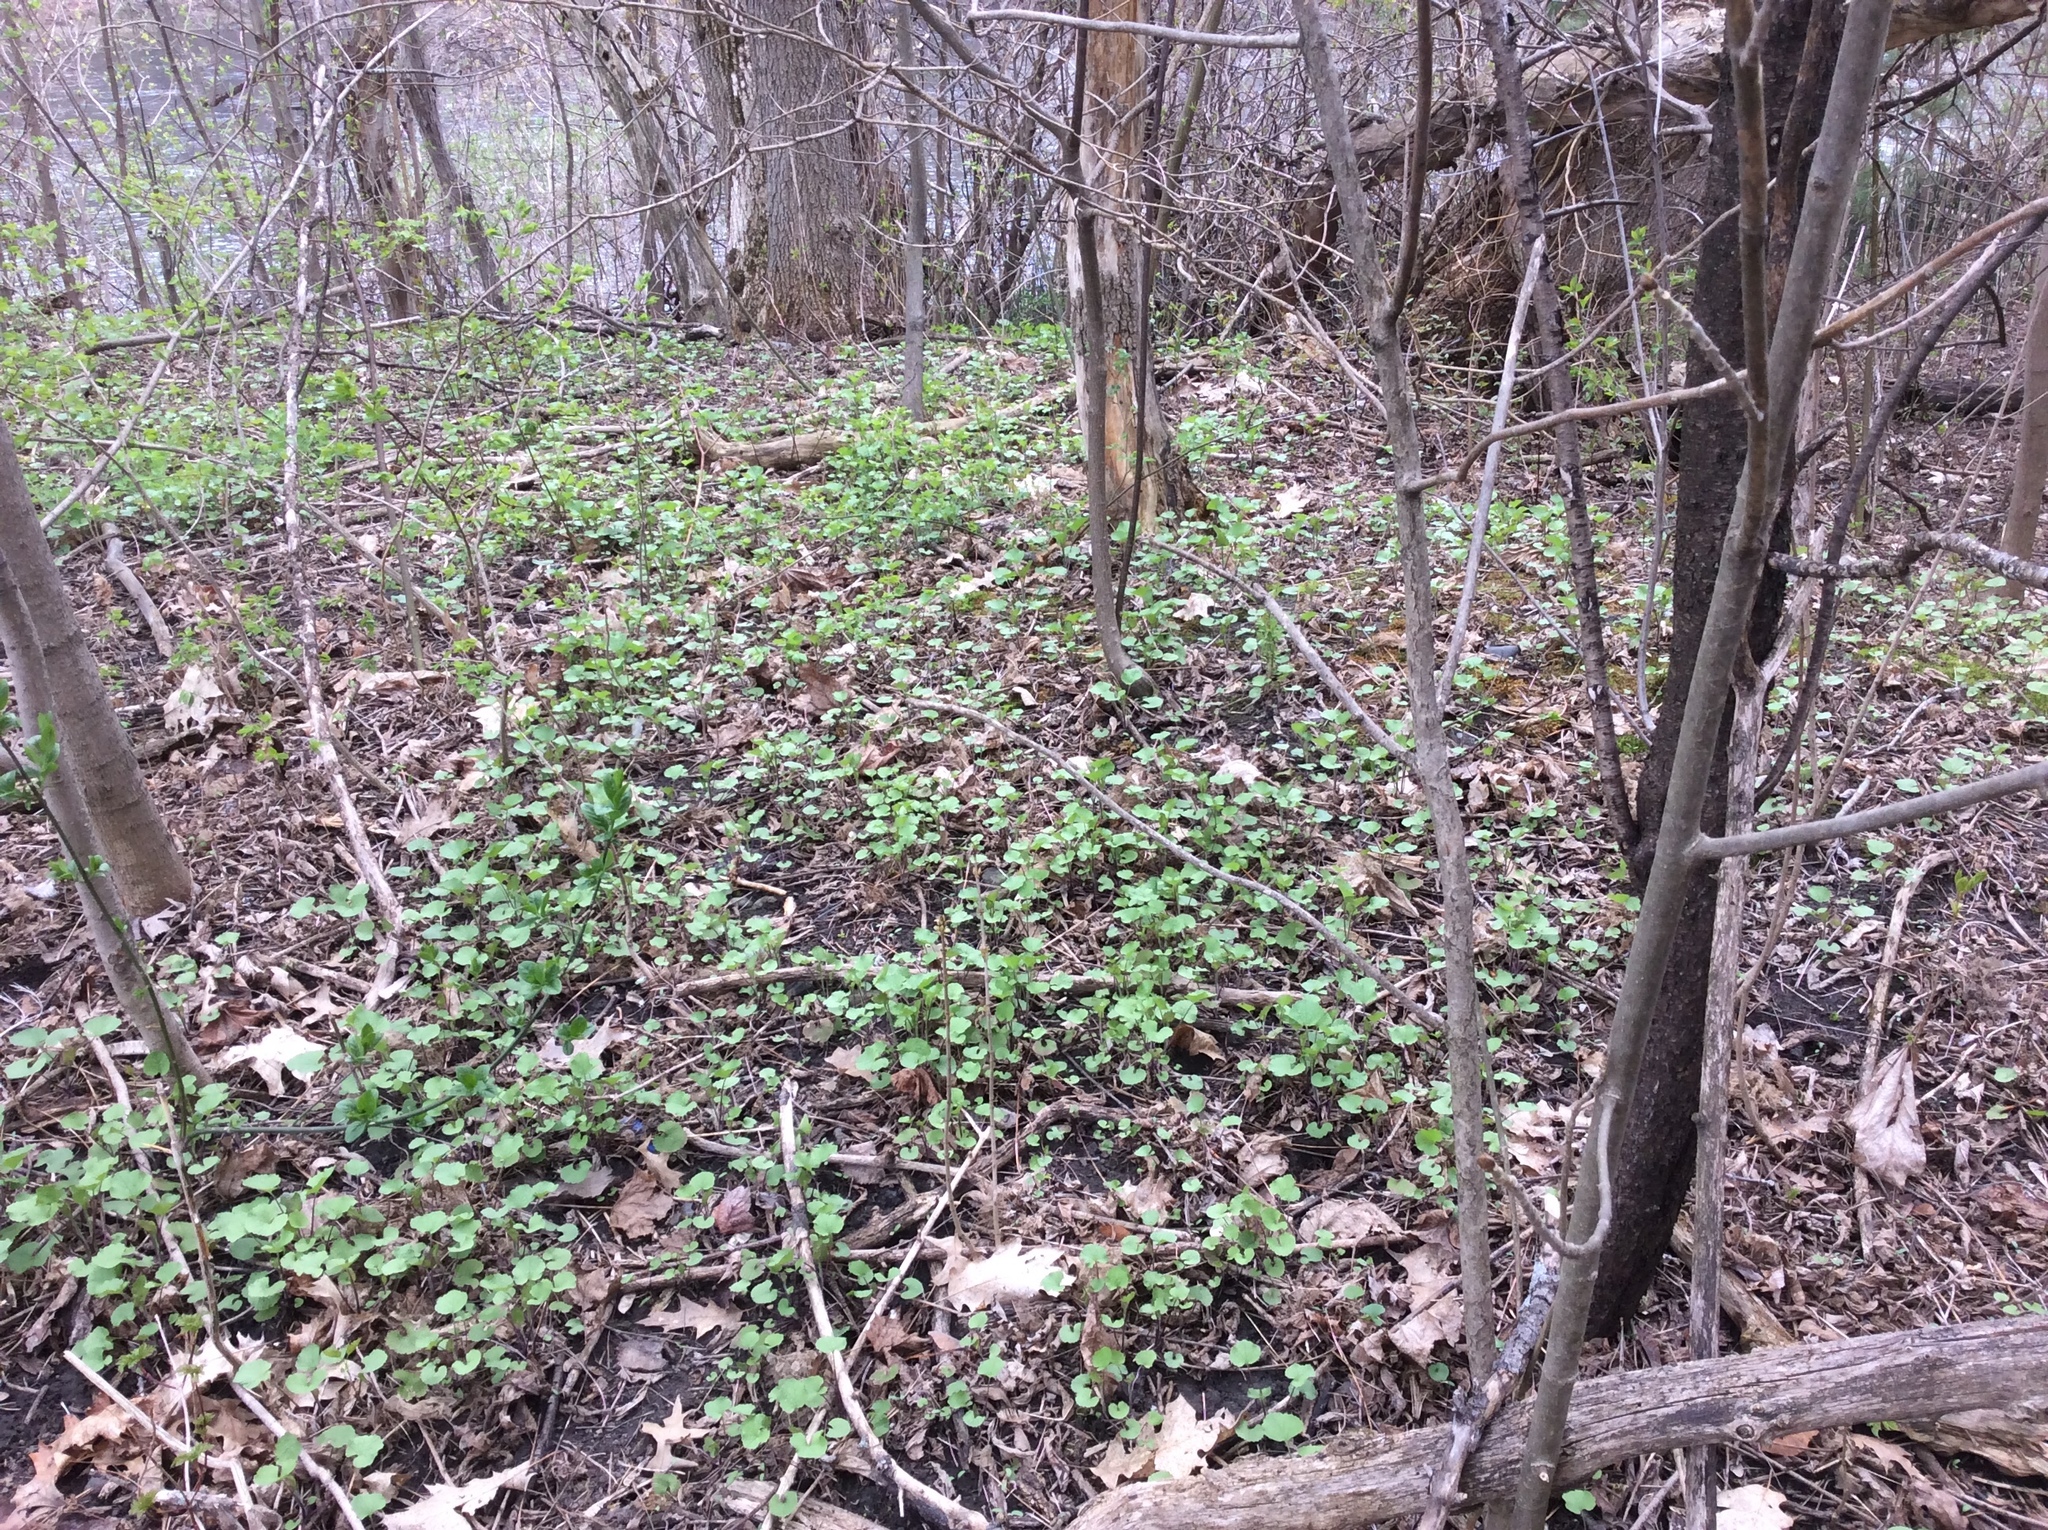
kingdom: Plantae
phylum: Tracheophyta
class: Magnoliopsida
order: Brassicales
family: Brassicaceae
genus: Alliaria
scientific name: Alliaria petiolata
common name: Garlic mustard
